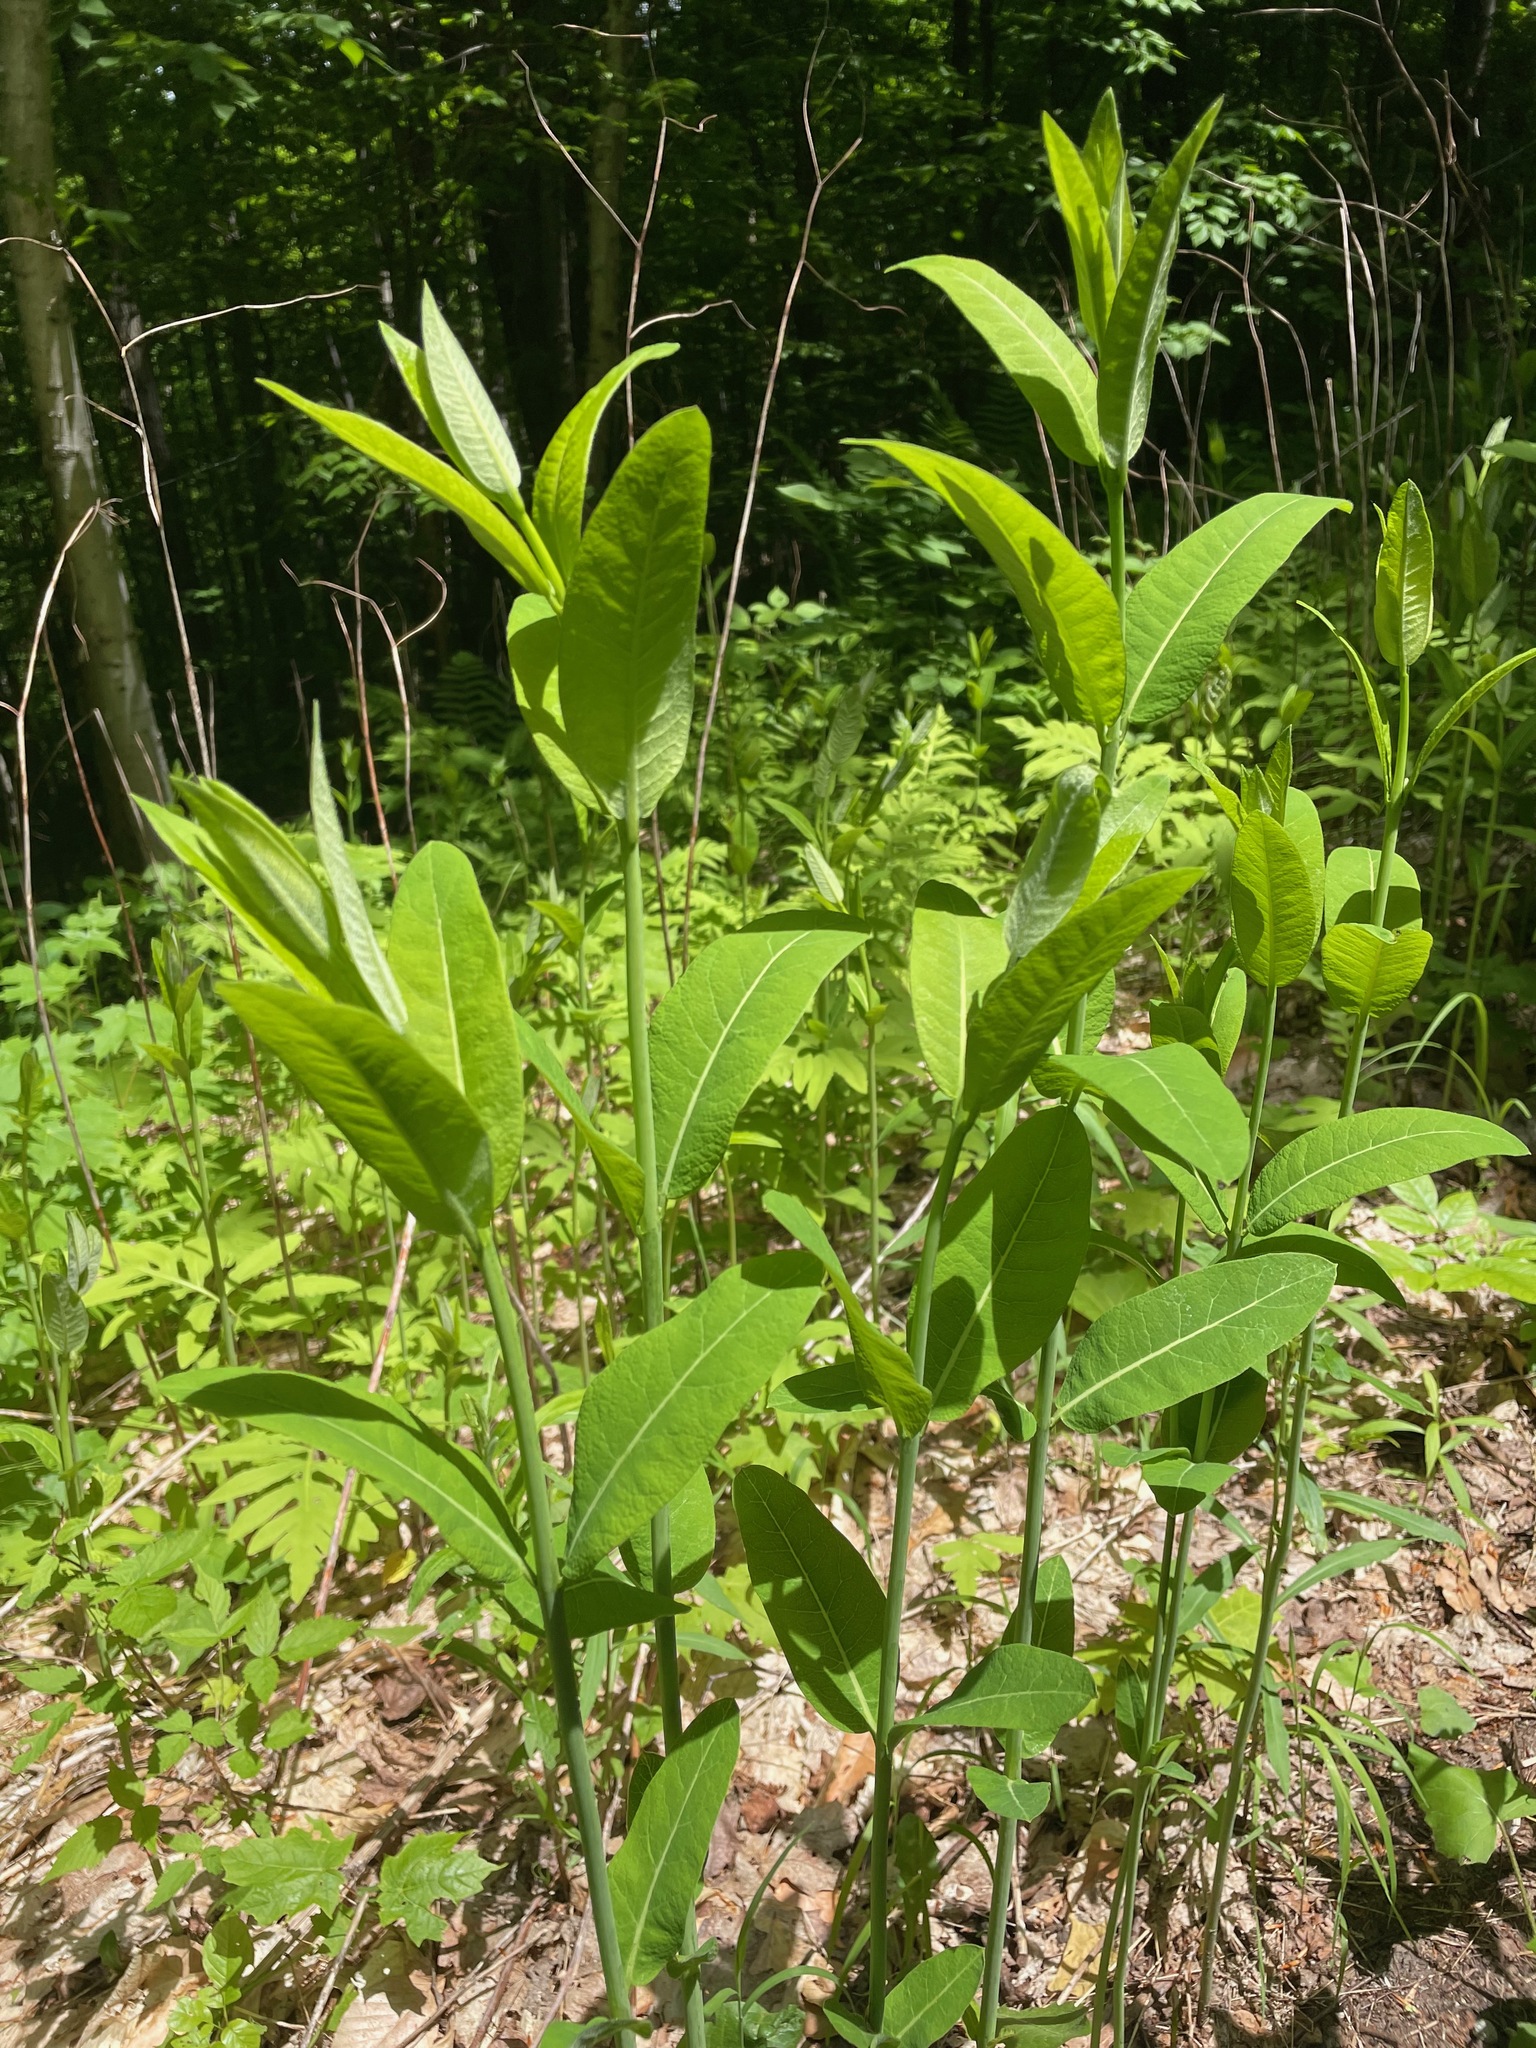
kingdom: Plantae
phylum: Tracheophyta
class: Magnoliopsida
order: Gentianales
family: Apocynaceae
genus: Apocynum
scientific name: Apocynum cannabinum
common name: Hemp dogbane
